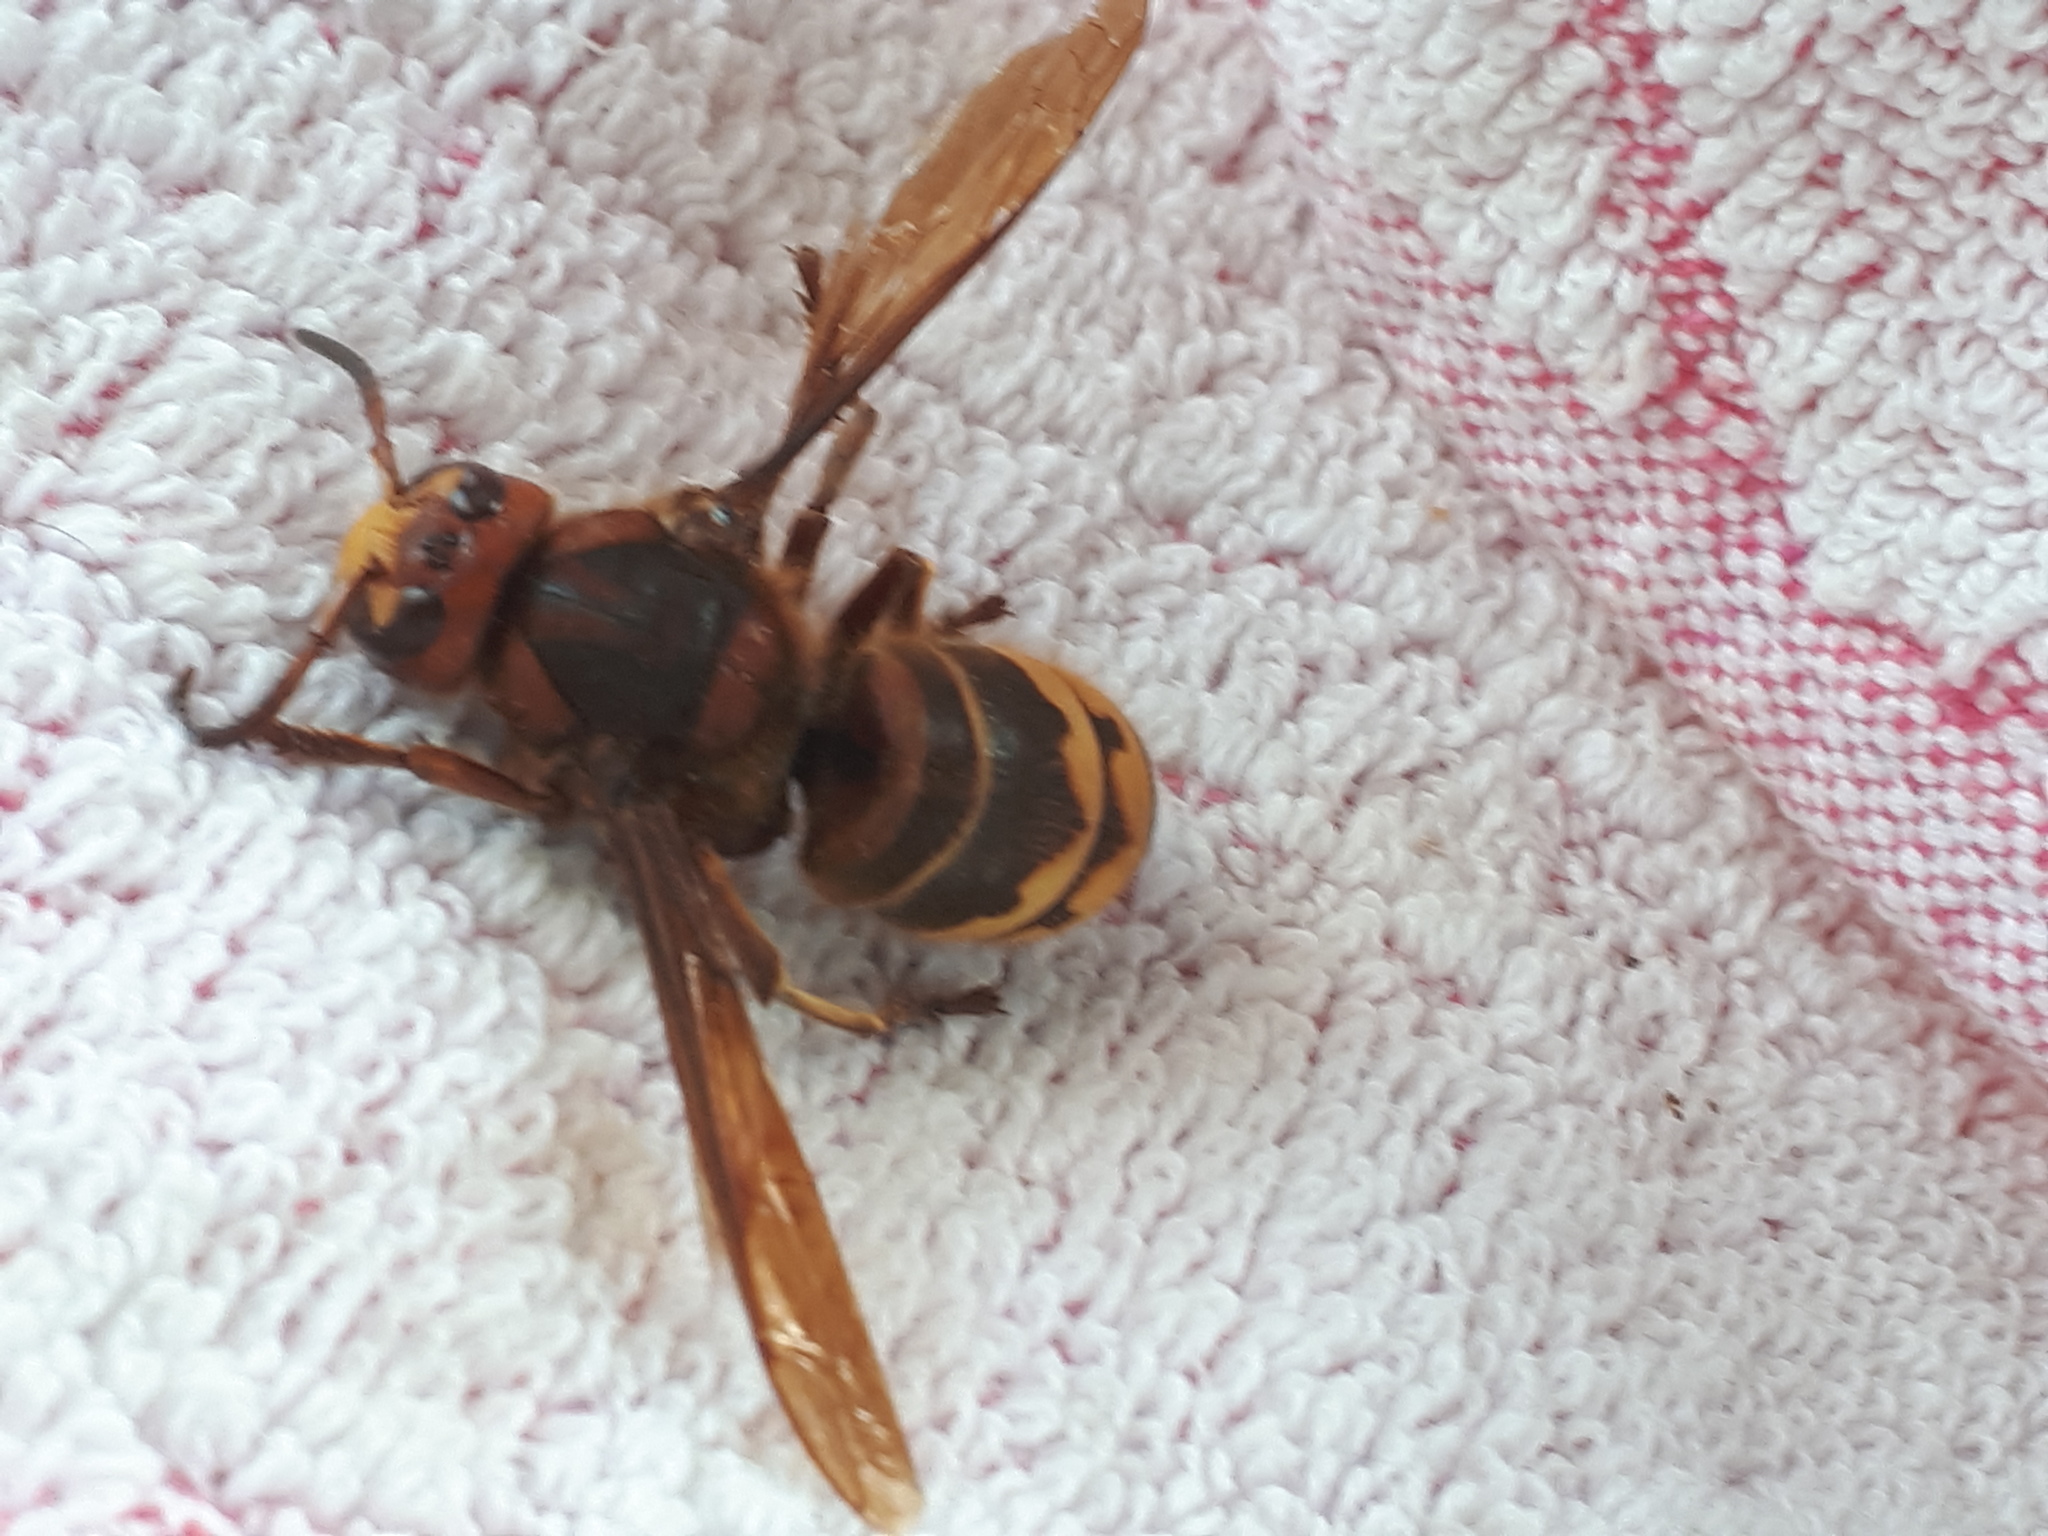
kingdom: Animalia
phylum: Arthropoda
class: Insecta
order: Hymenoptera
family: Vespidae
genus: Vespa
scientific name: Vespa crabro
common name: Hornet
